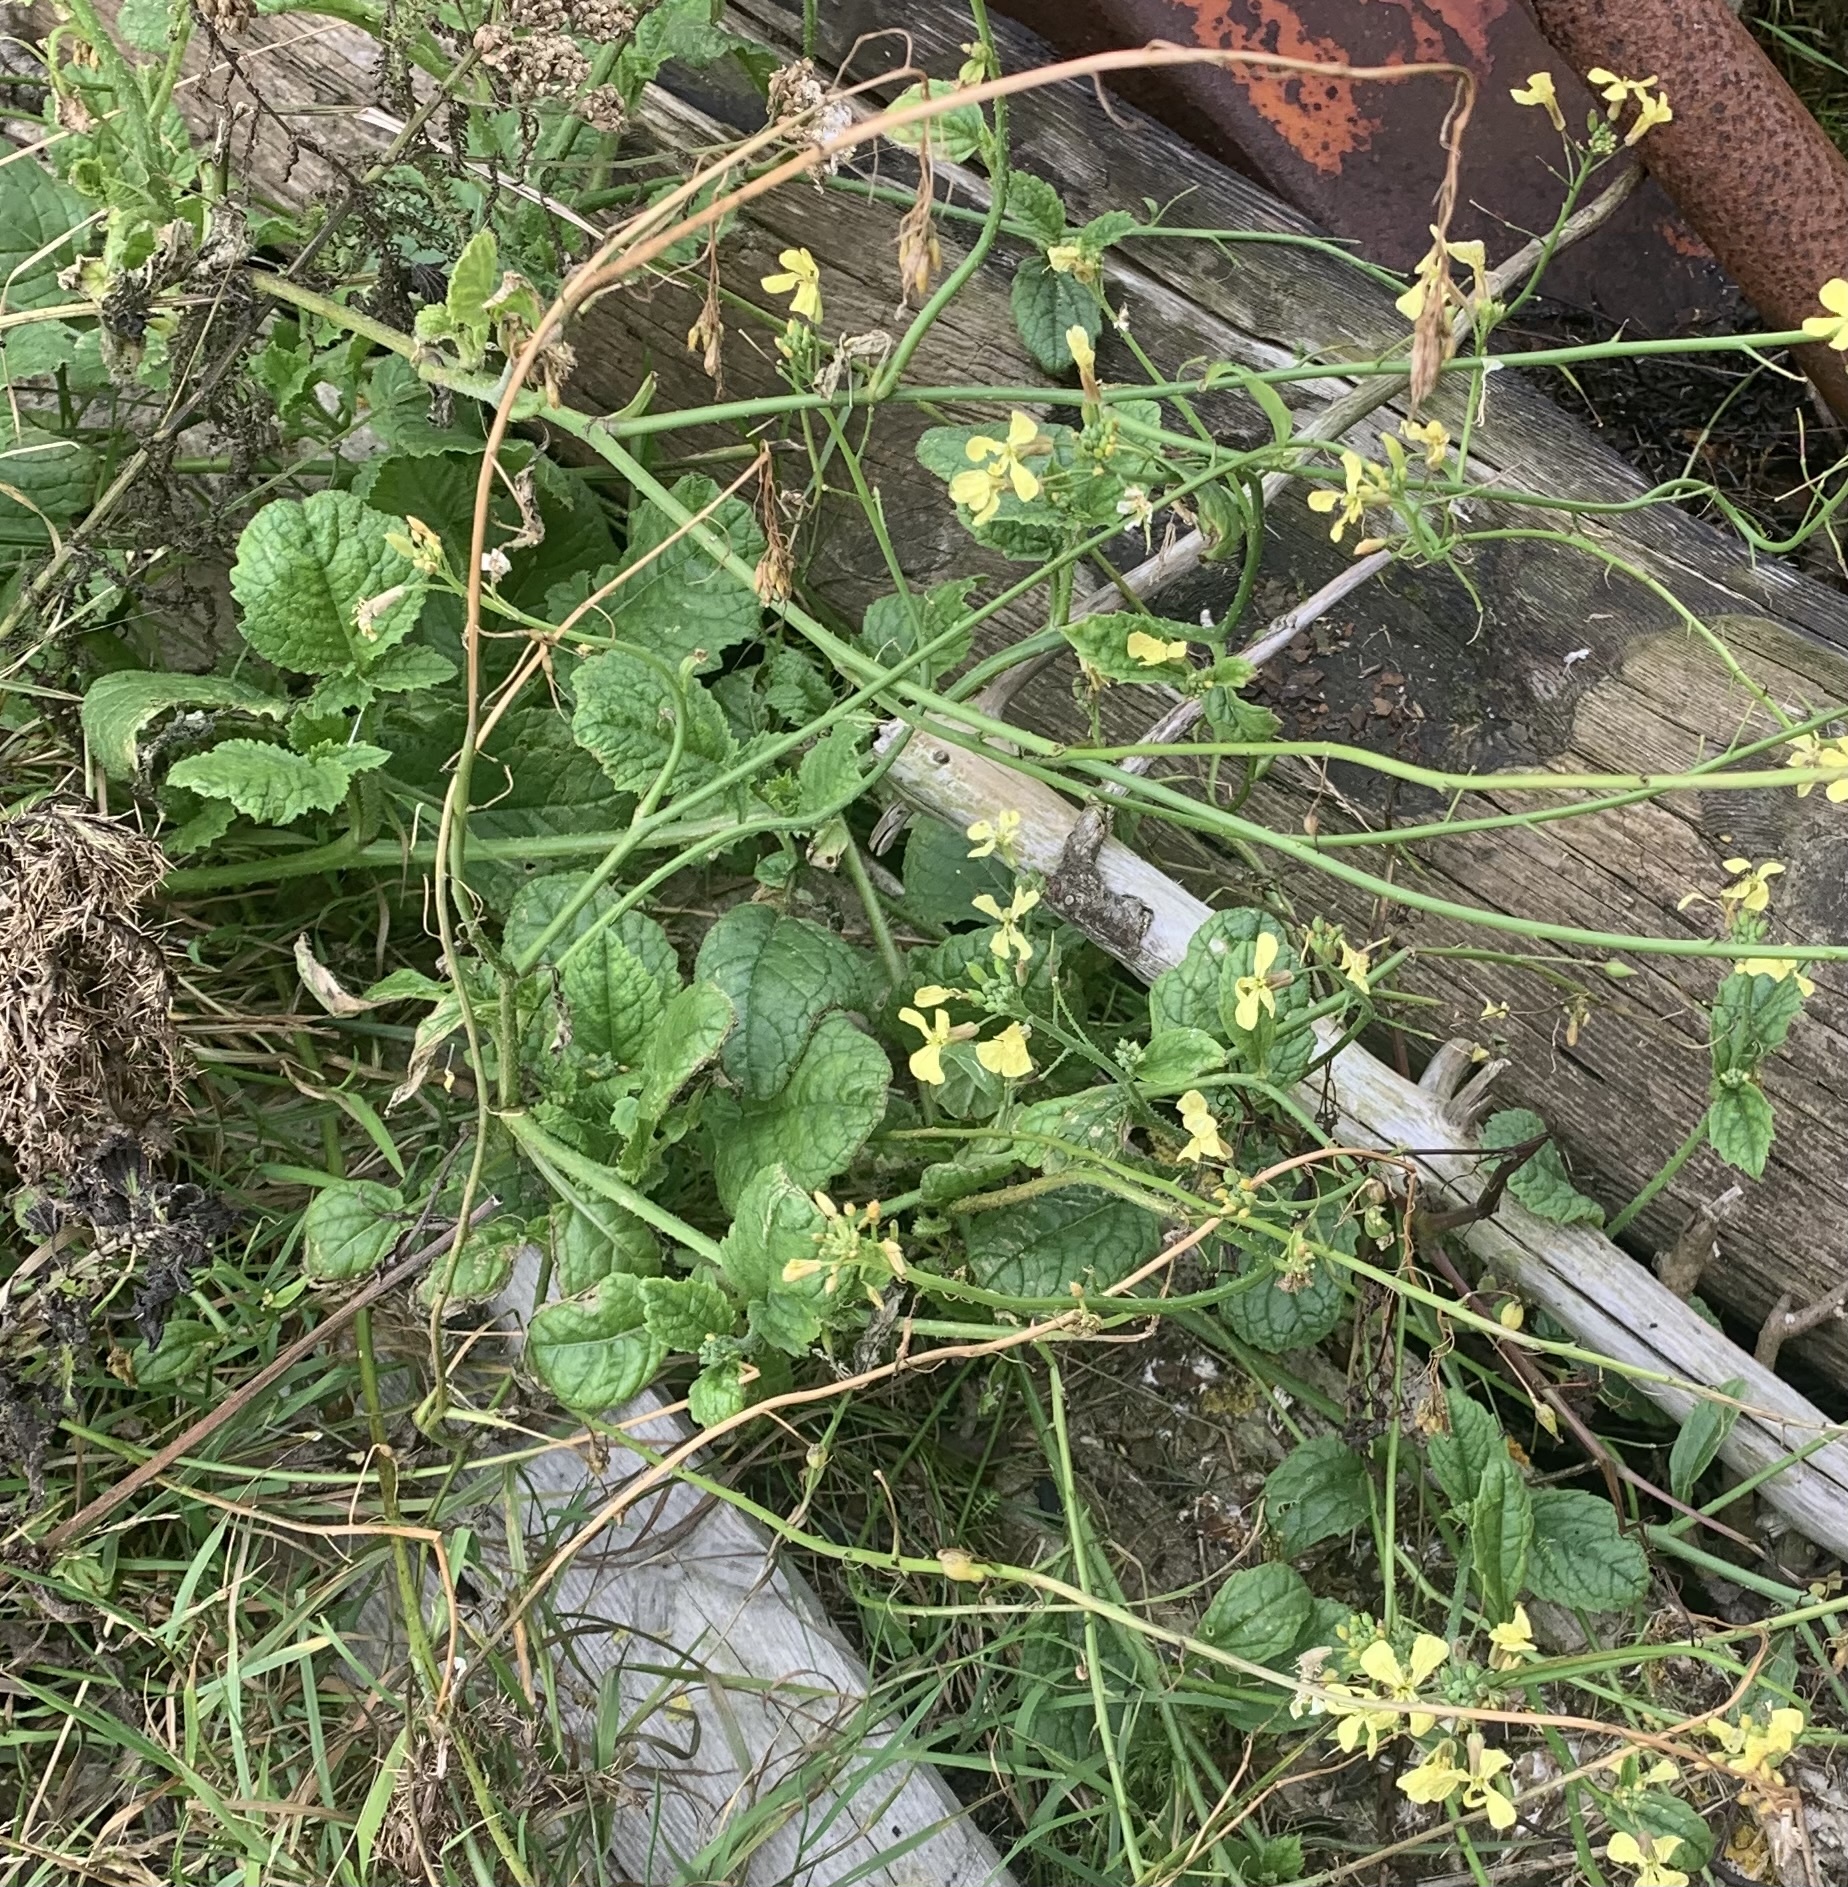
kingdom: Plantae
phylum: Tracheophyta
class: Magnoliopsida
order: Brassicales
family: Brassicaceae
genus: Raphanus
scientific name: Raphanus raphanistrum
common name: Wild radish
